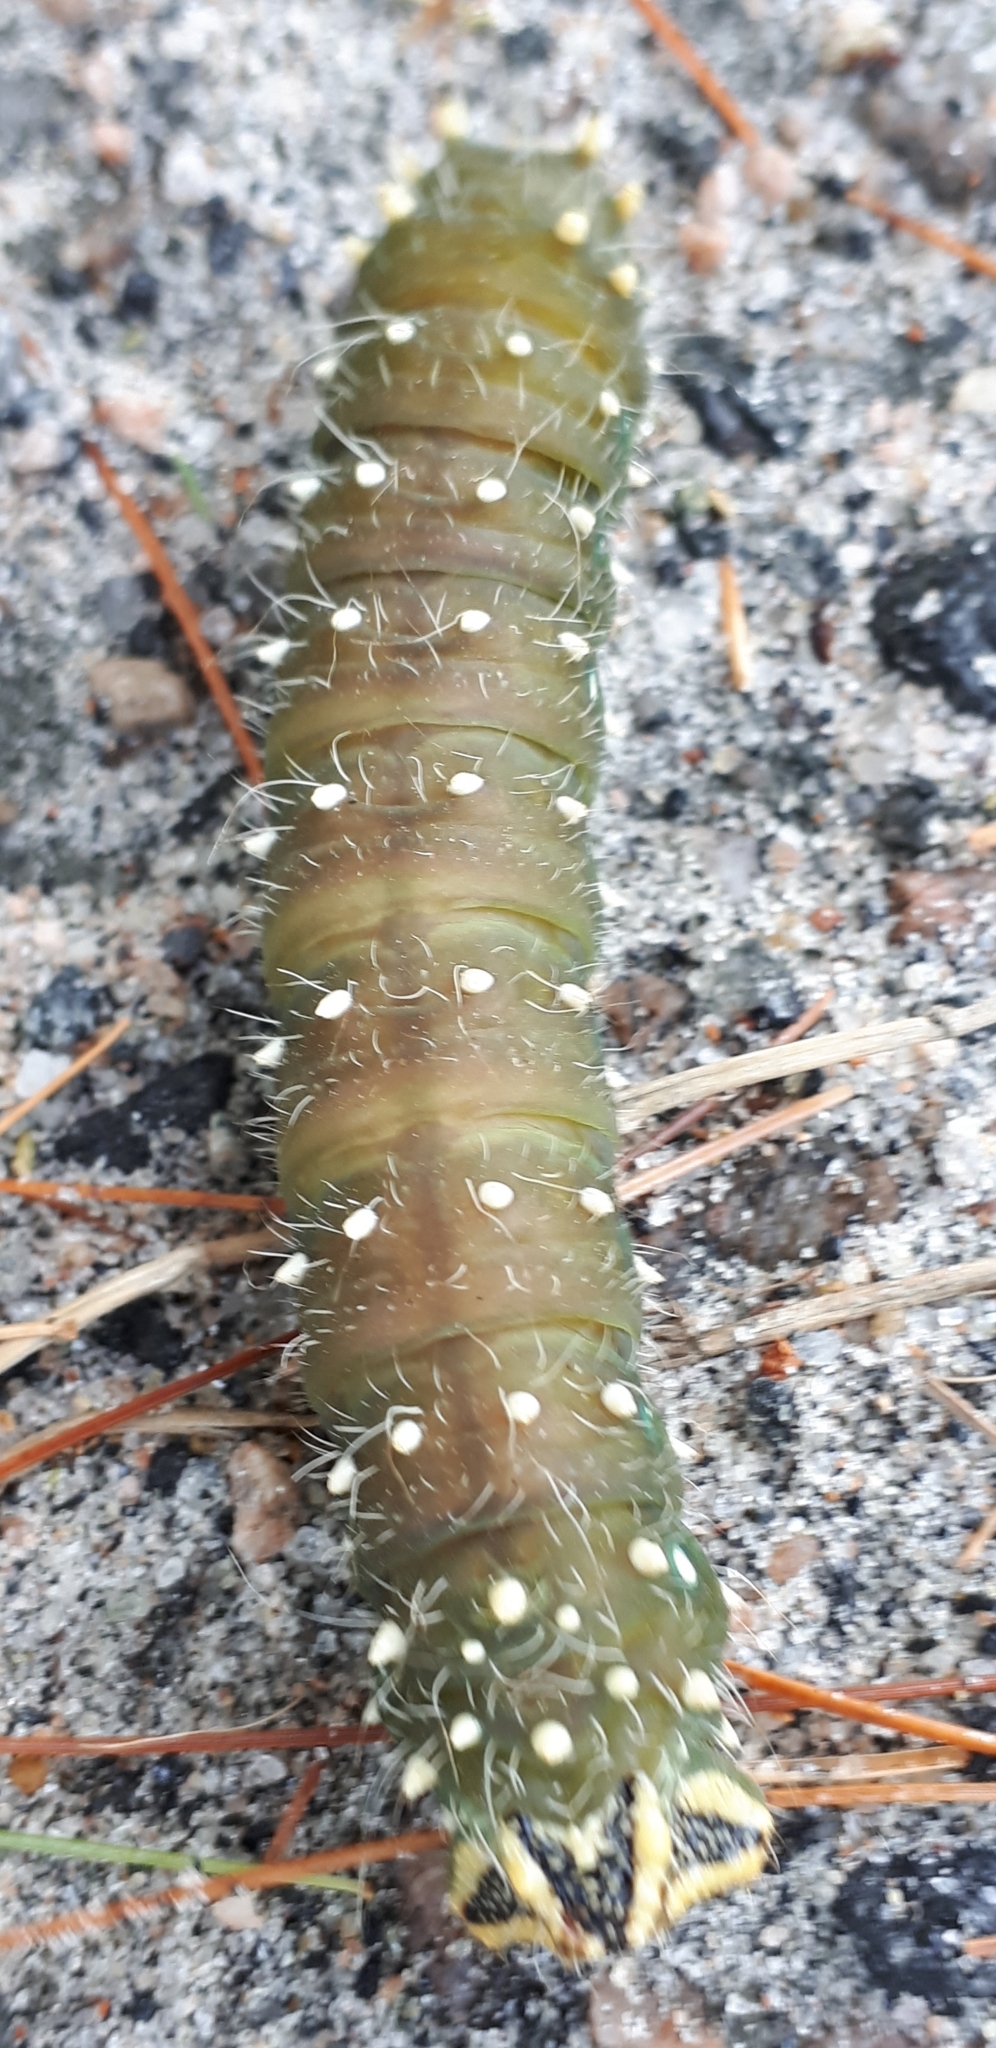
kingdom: Animalia
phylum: Arthropoda
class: Insecta
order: Lepidoptera
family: Saturniidae
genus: Eacles
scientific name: Eacles
